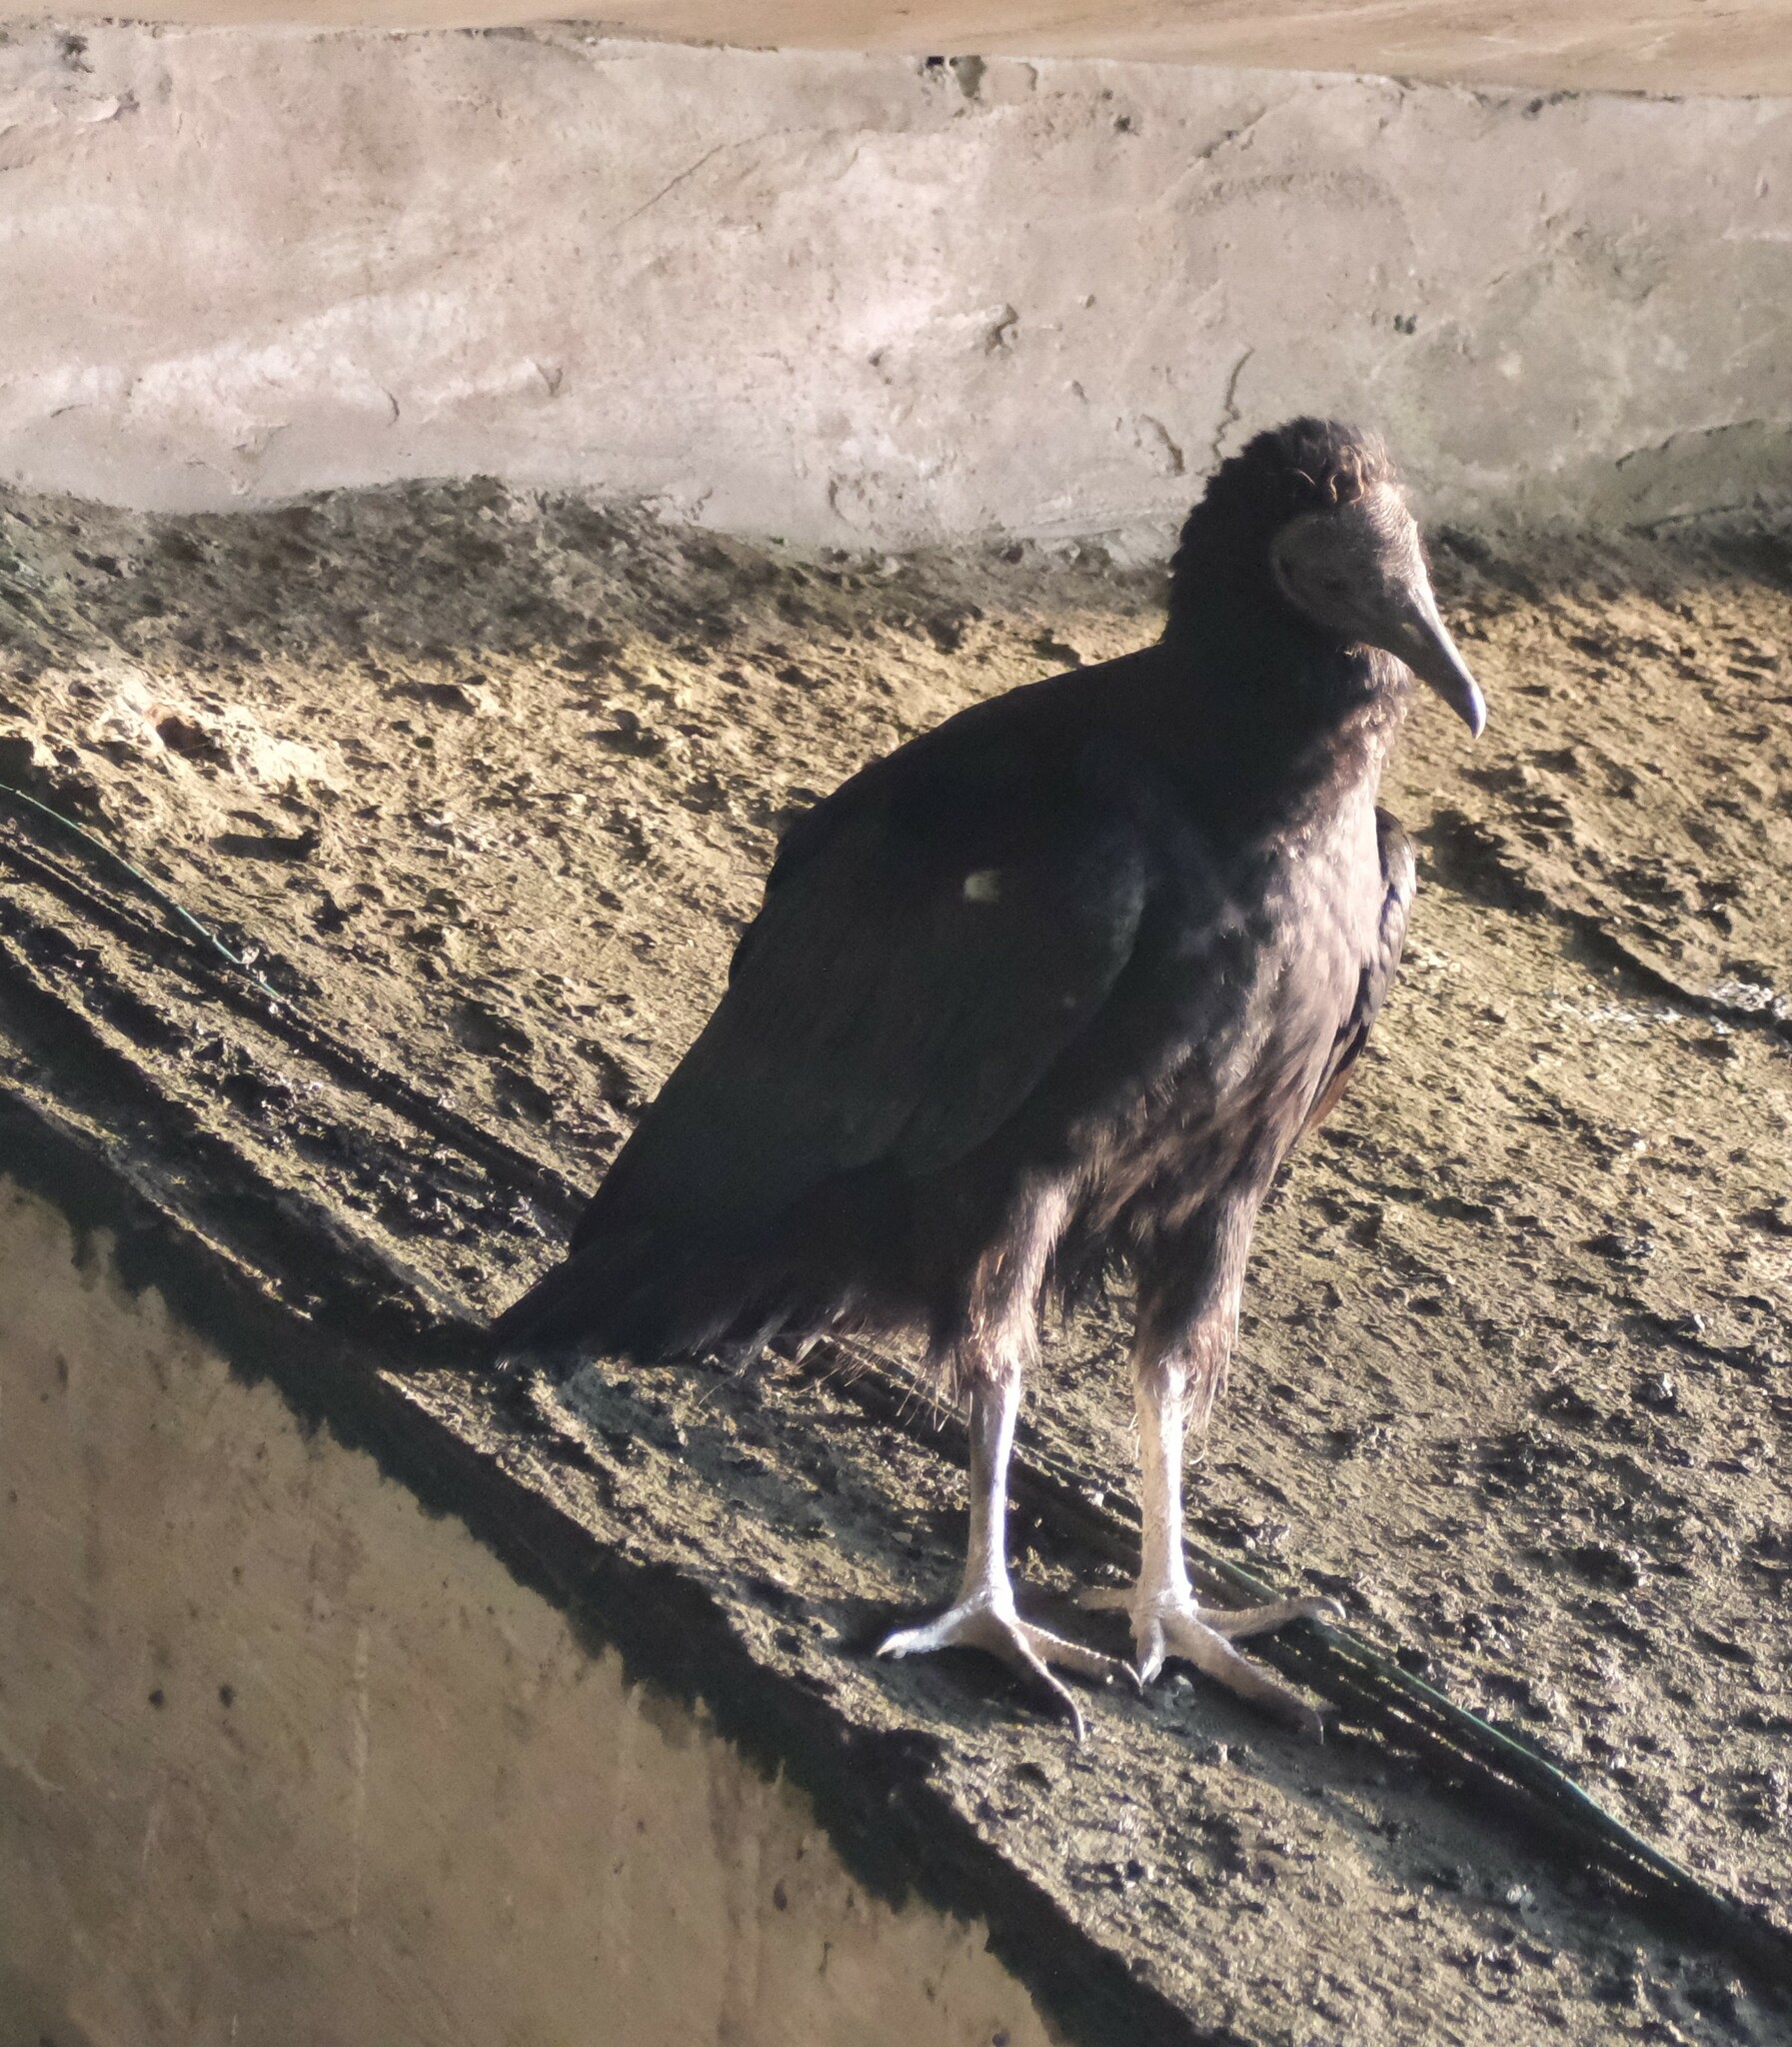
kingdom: Animalia
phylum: Chordata
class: Aves
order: Accipitriformes
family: Cathartidae
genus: Coragyps
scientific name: Coragyps atratus
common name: Black vulture
